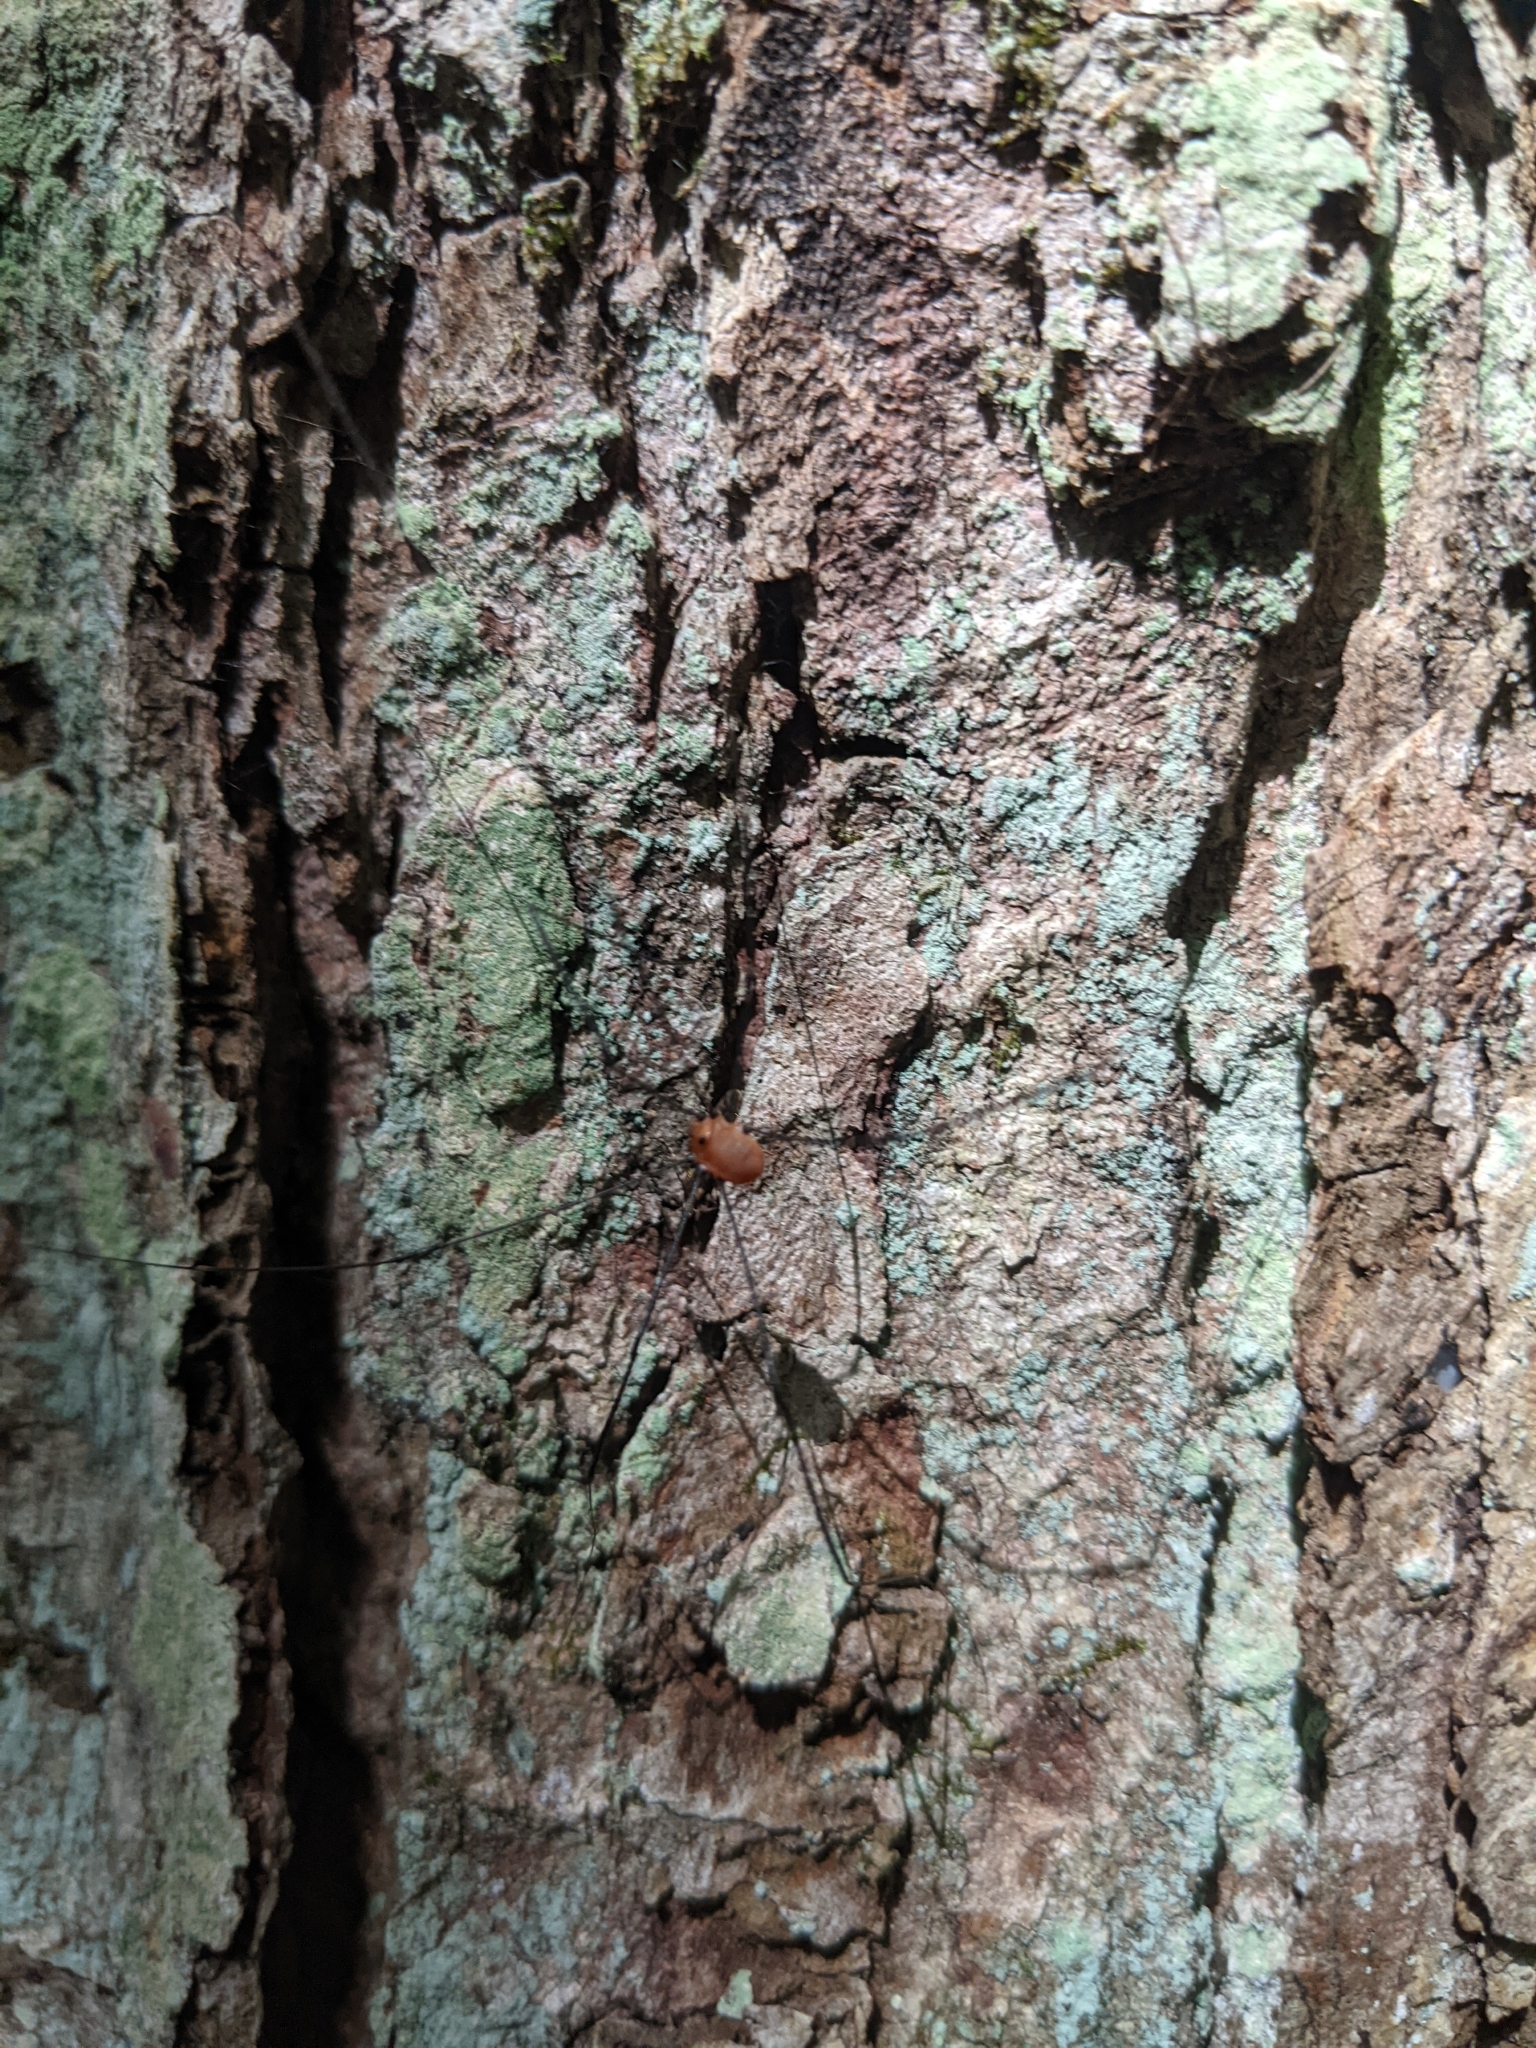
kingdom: Animalia
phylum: Arthropoda
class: Arachnida
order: Opiliones
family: Sclerosomatidae
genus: Leiobunum
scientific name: Leiobunum aldrichi
